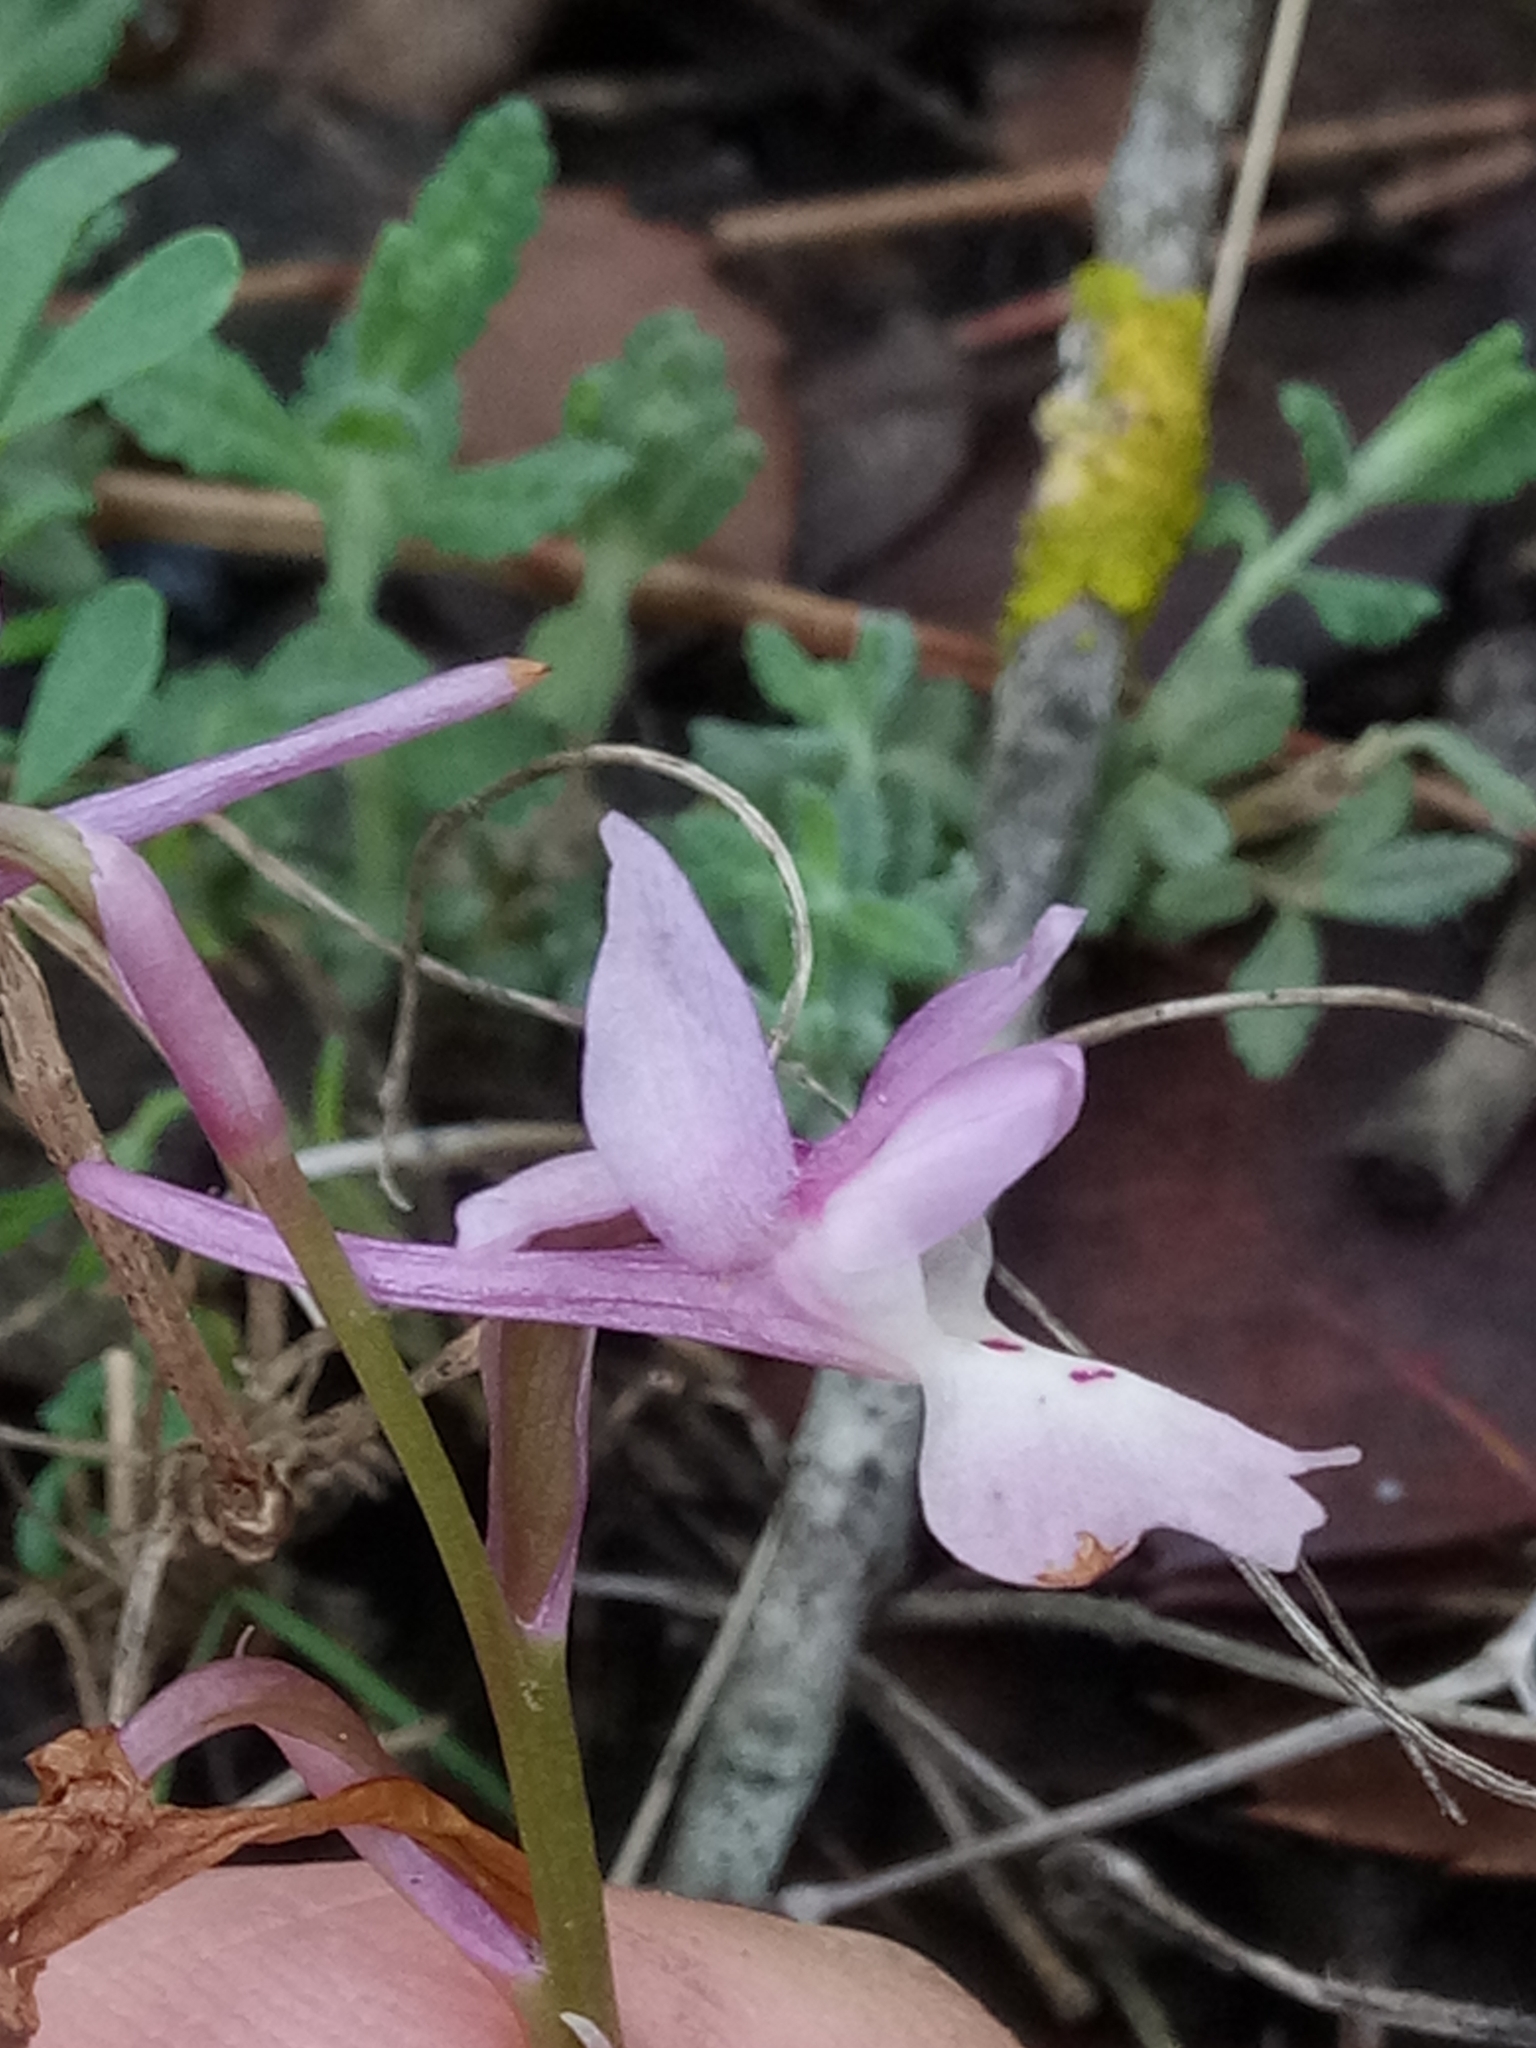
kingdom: Plantae
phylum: Tracheophyta
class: Liliopsida
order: Asparagales
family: Orchidaceae
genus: Orchis
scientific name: Orchis laeta
